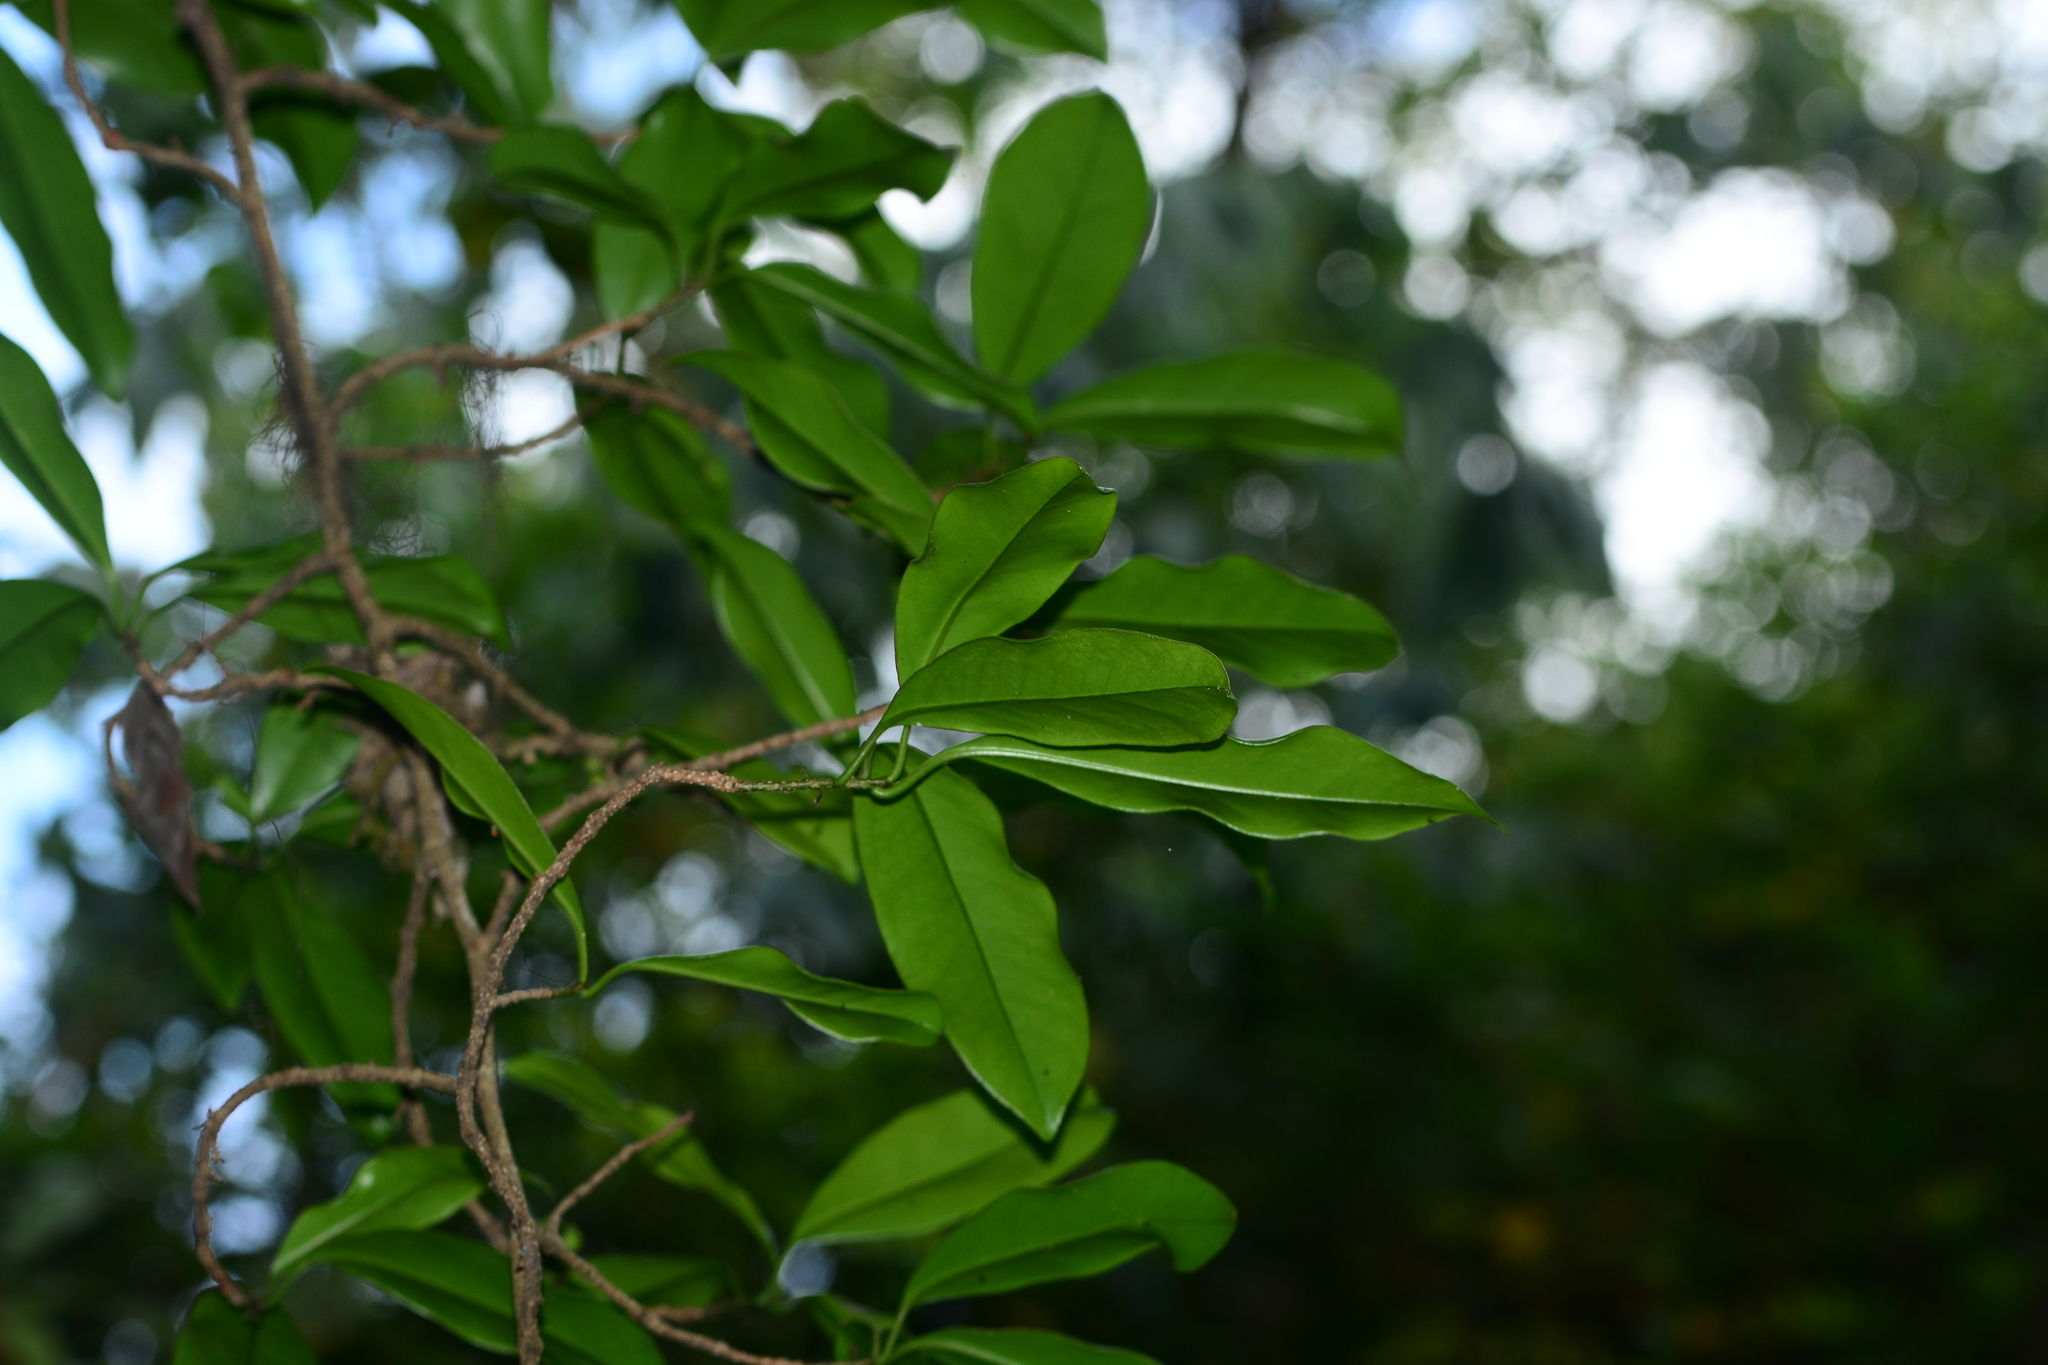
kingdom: Plantae
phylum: Tracheophyta
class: Magnoliopsida
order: Ericales
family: Primulaceae
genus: Embelia
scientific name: Embelia drupacea
